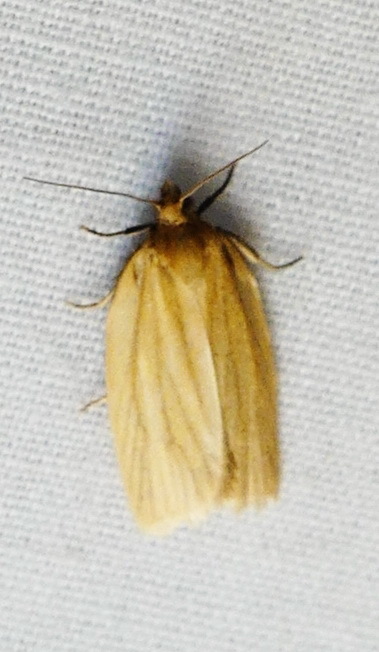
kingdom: Animalia
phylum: Arthropoda
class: Insecta
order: Lepidoptera
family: Tortricidae
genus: Clepsis
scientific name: Clepsis clemensiana
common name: Clemens' clepsis moth
